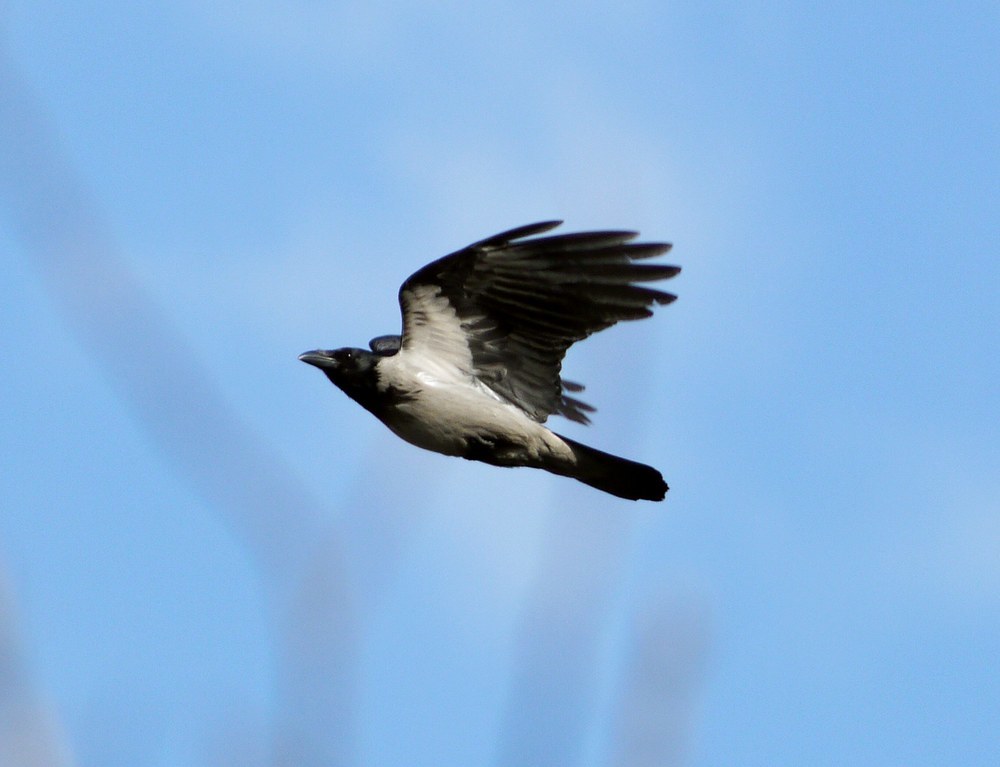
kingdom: Animalia
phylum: Chordata
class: Aves
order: Passeriformes
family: Corvidae
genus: Corvus
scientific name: Corvus cornix
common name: Hooded crow
